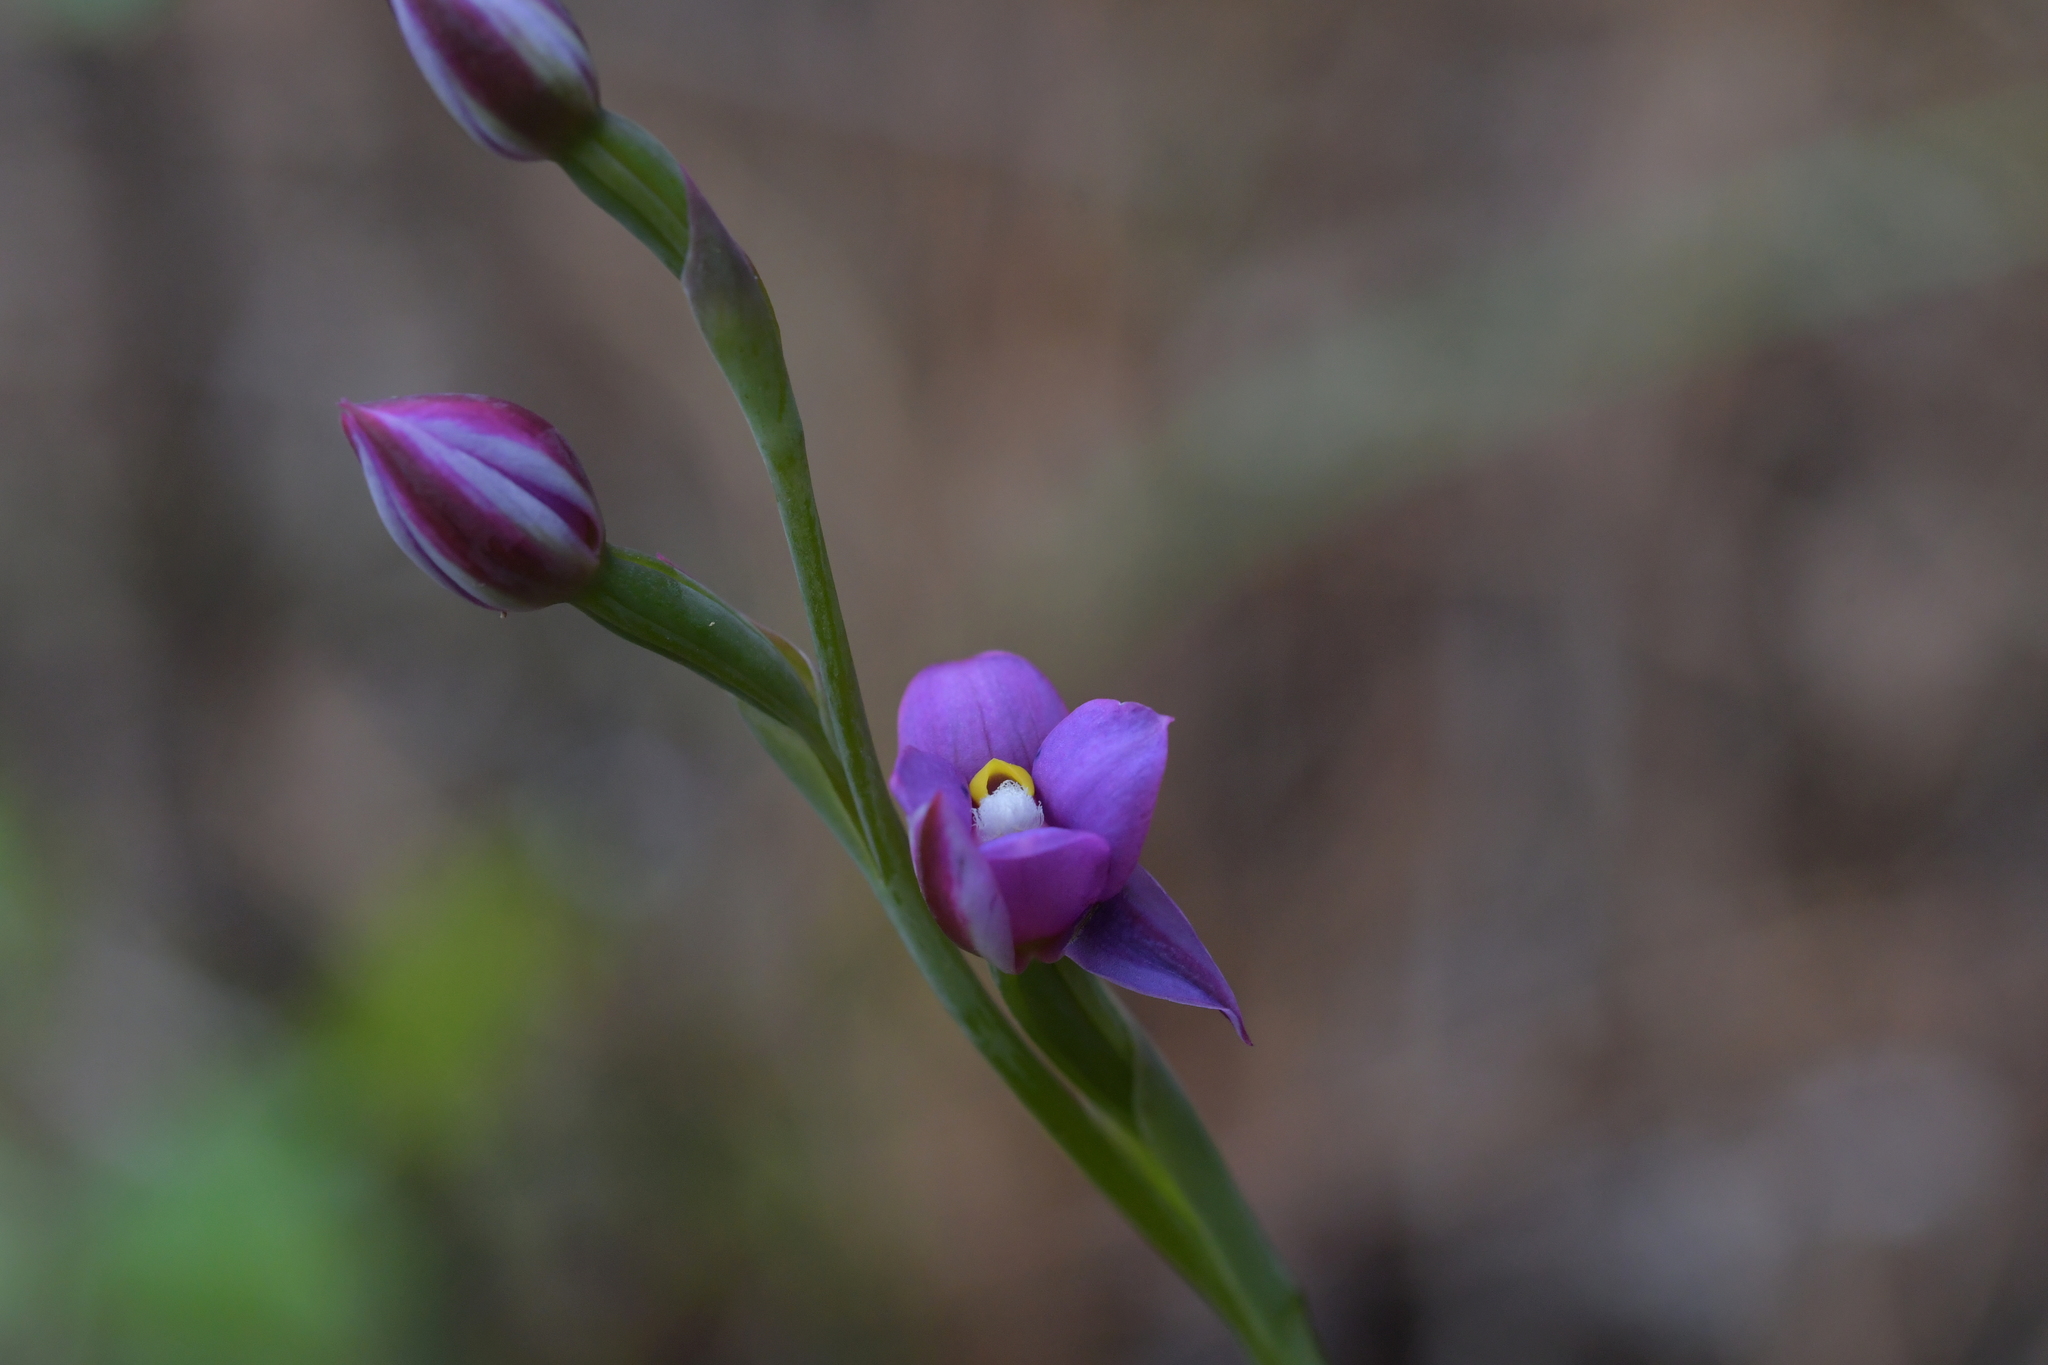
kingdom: Plantae
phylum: Tracheophyta
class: Liliopsida
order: Asparagales
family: Orchidaceae
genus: Thelymitra
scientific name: Thelymitra nervosa
